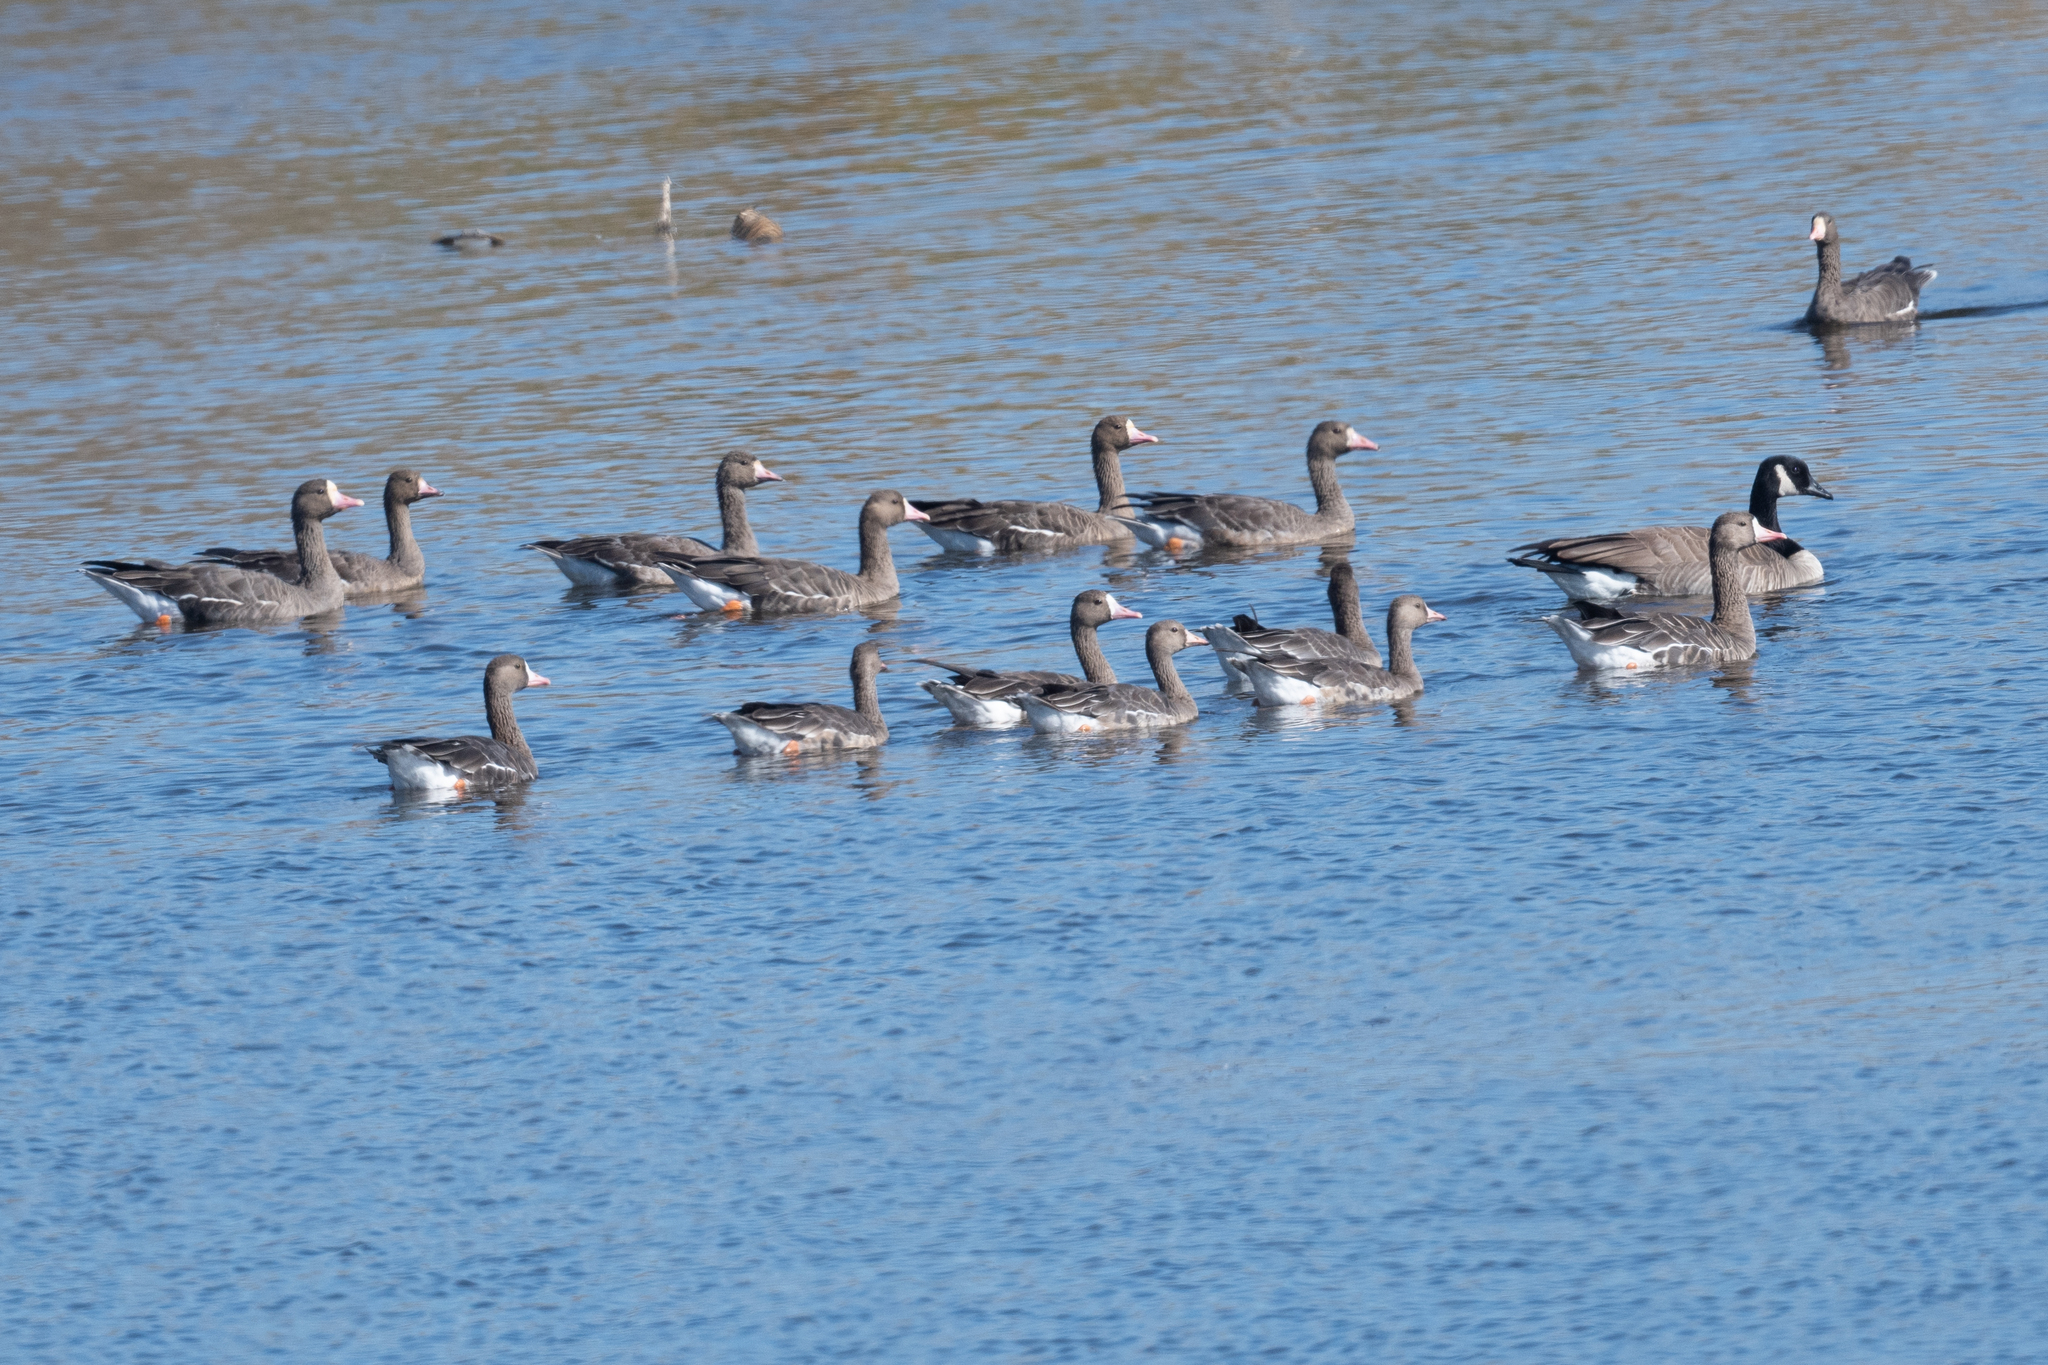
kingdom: Animalia
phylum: Chordata
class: Aves
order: Anseriformes
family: Anatidae
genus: Anser
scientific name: Anser albifrons
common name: Greater white-fronted goose
